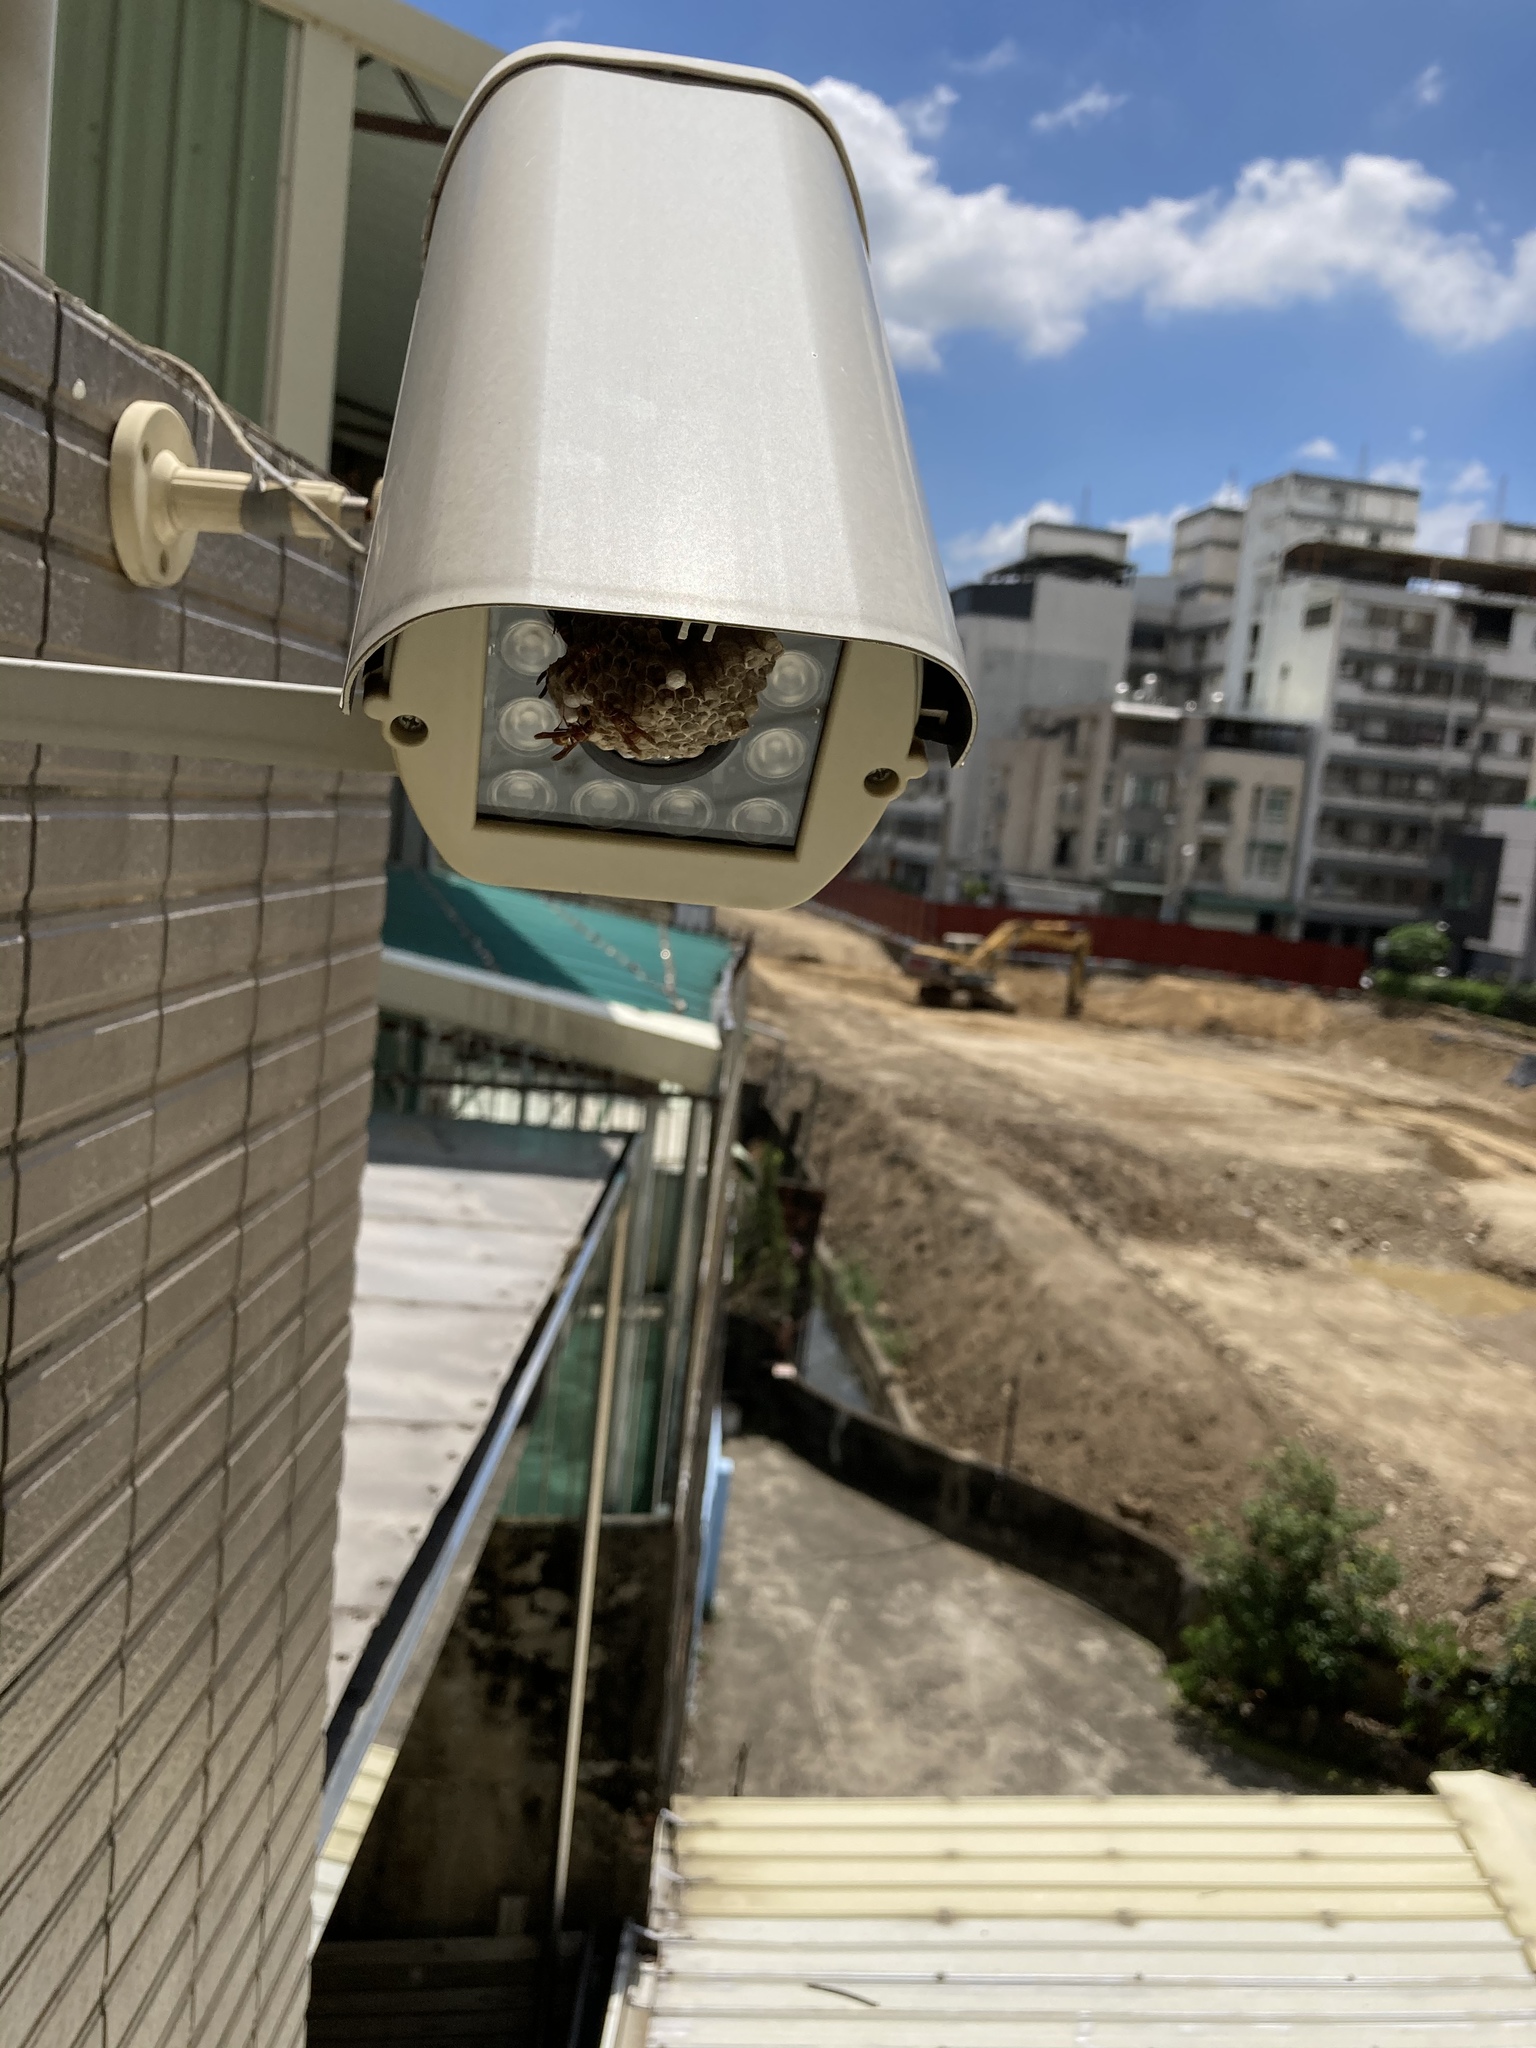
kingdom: Animalia
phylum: Arthropoda
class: Insecta
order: Hymenoptera
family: Eumenidae
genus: Polistes
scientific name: Polistes shirakii
